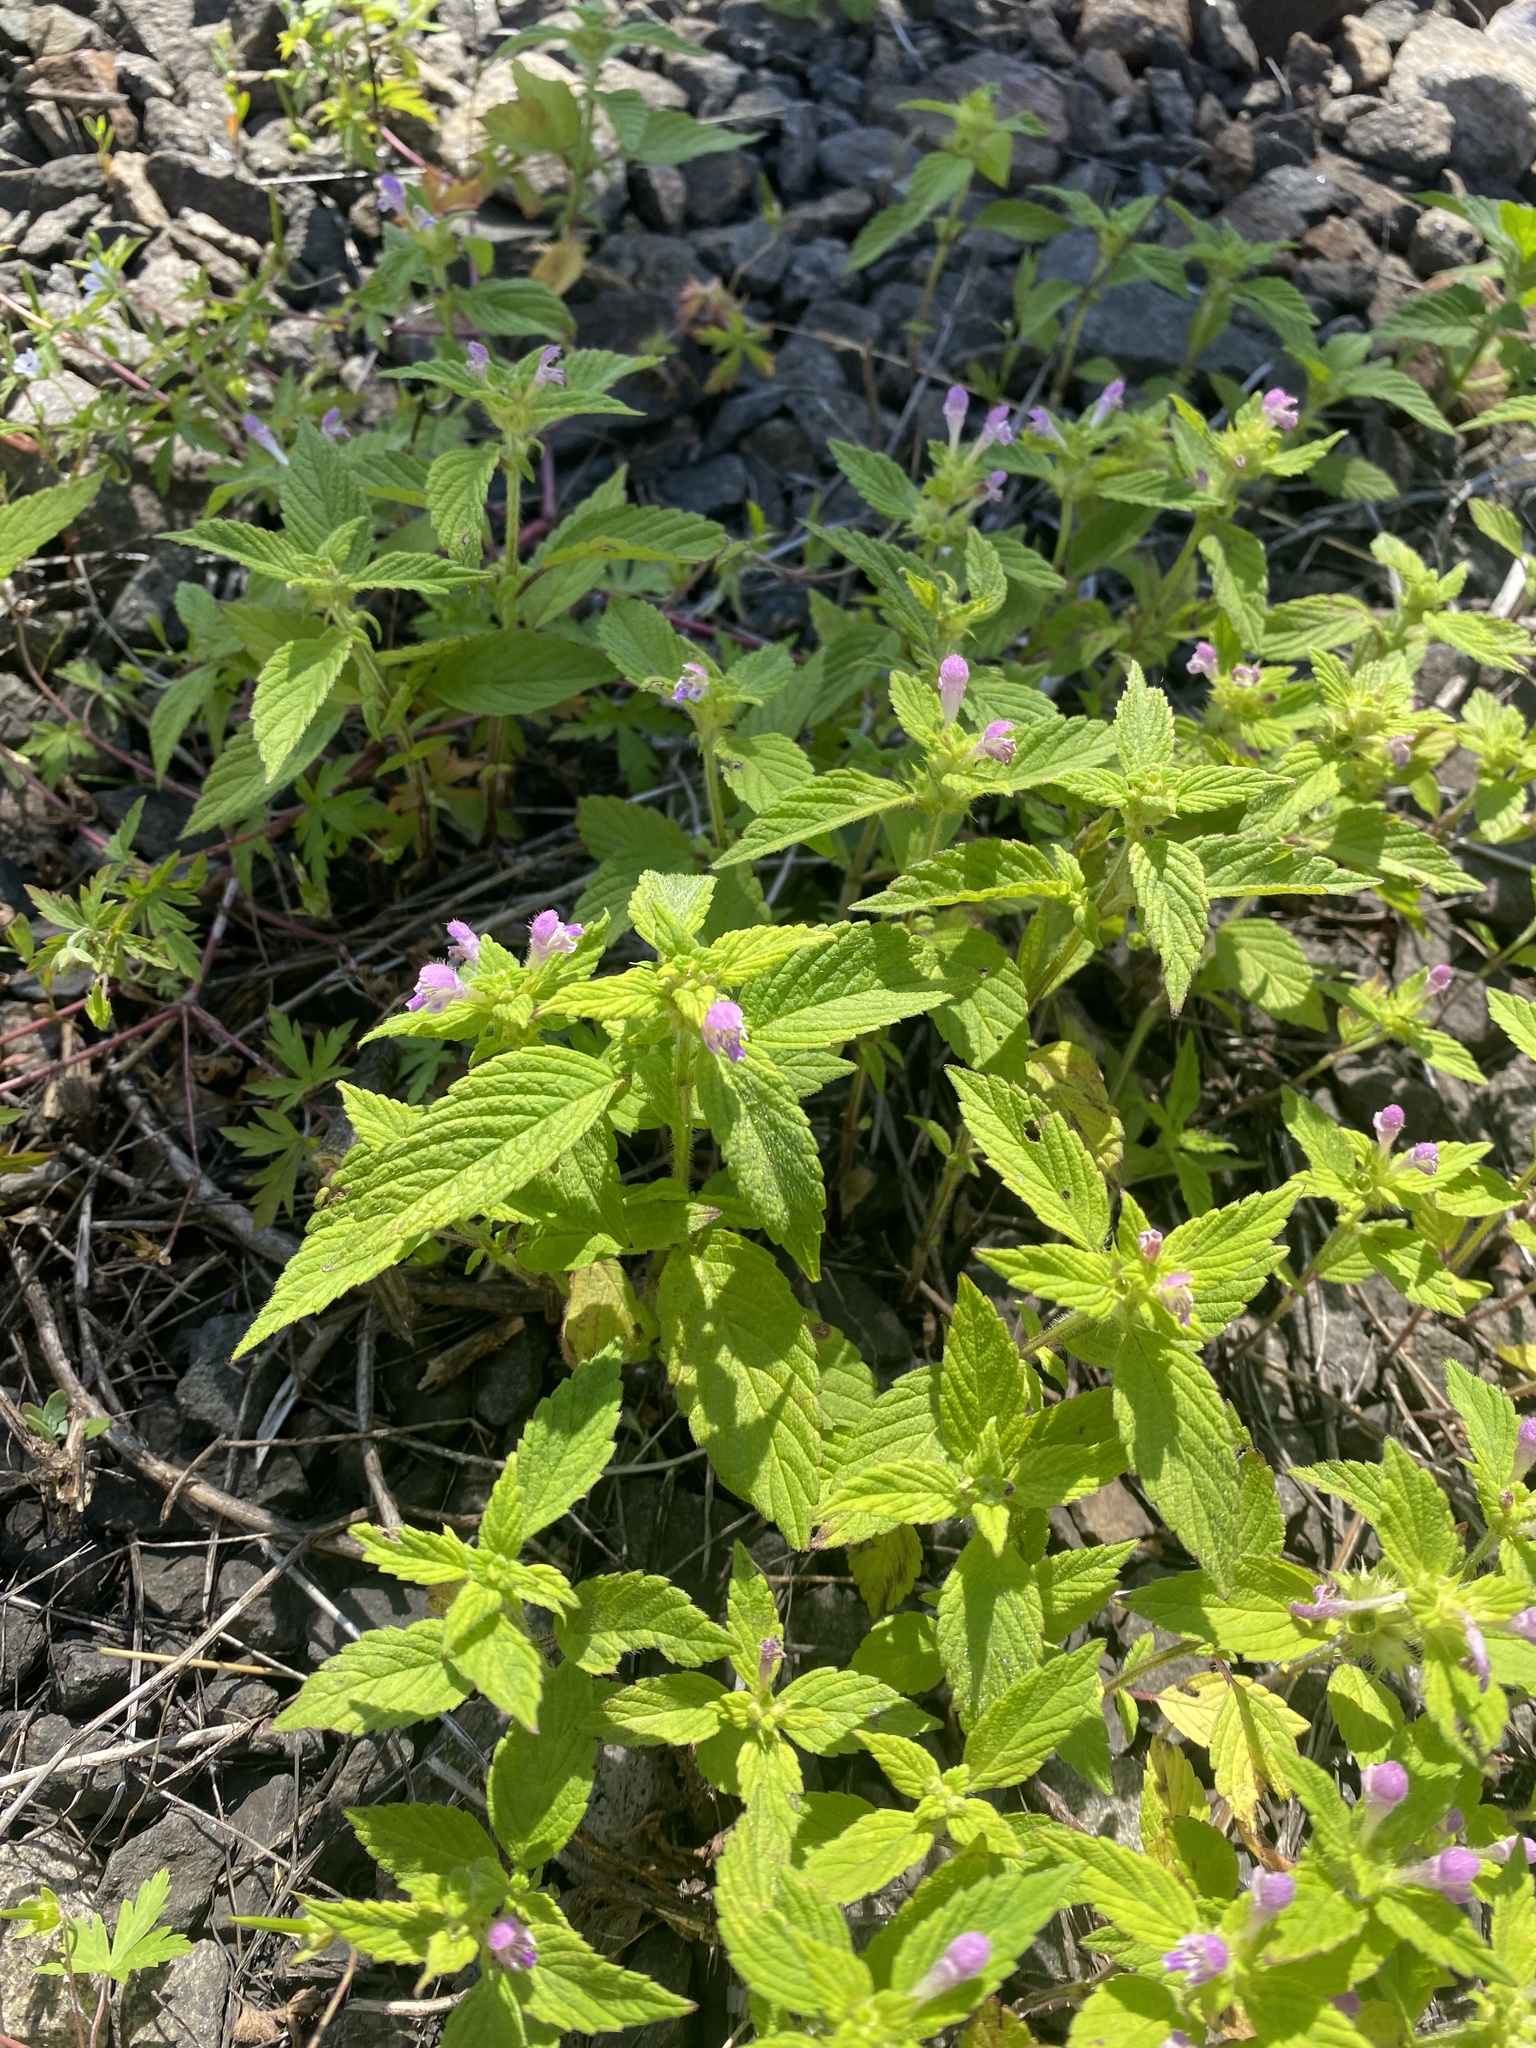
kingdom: Plantae
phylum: Tracheophyta
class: Magnoliopsida
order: Lamiales
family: Lamiaceae
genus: Galeopsis
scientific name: Galeopsis bifida
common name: Bifid hemp-nettle
